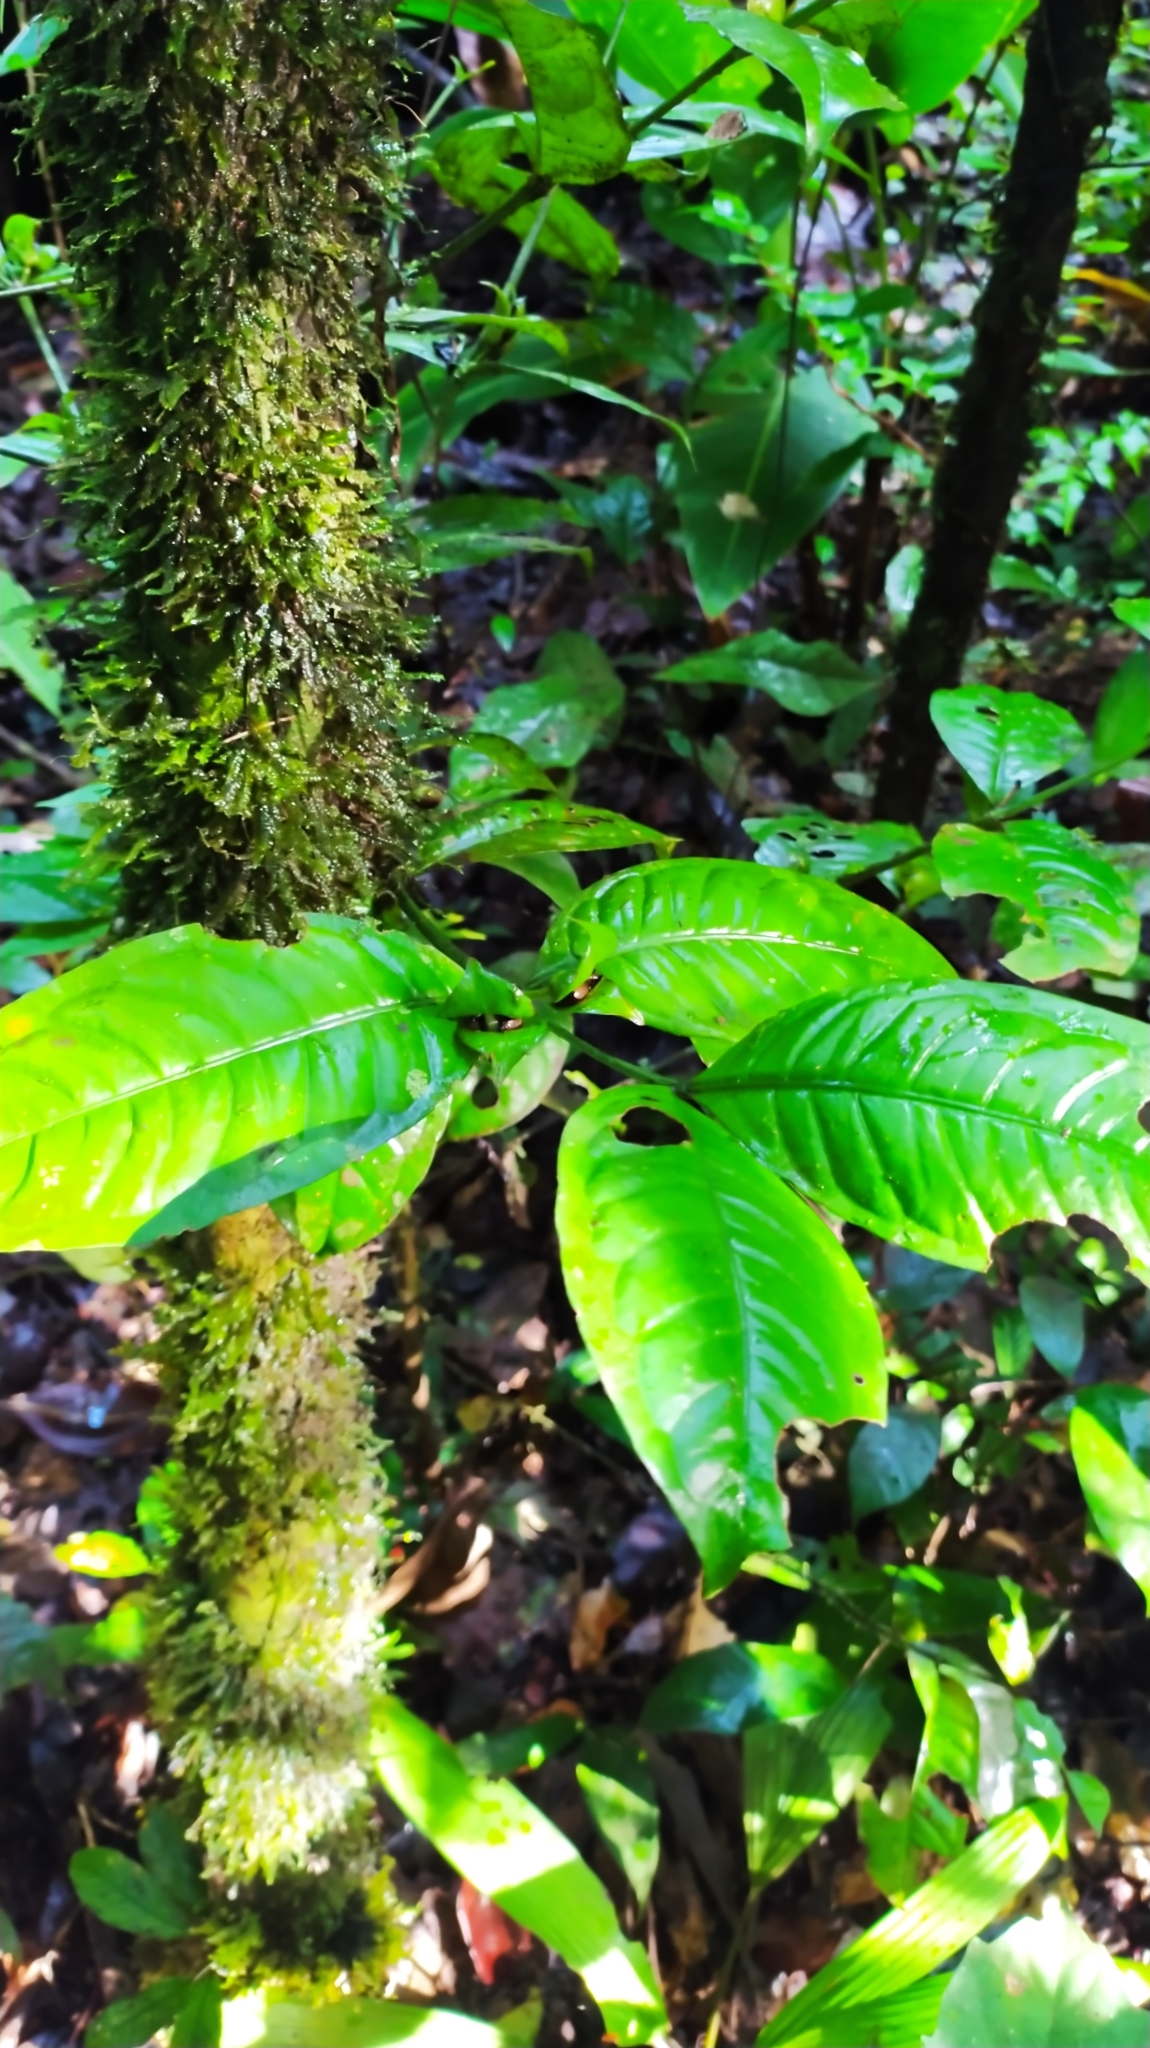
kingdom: Plantae
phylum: Tracheophyta
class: Magnoliopsida
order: Gentianales
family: Rubiaceae
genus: Faramea
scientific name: Faramea guianensis
